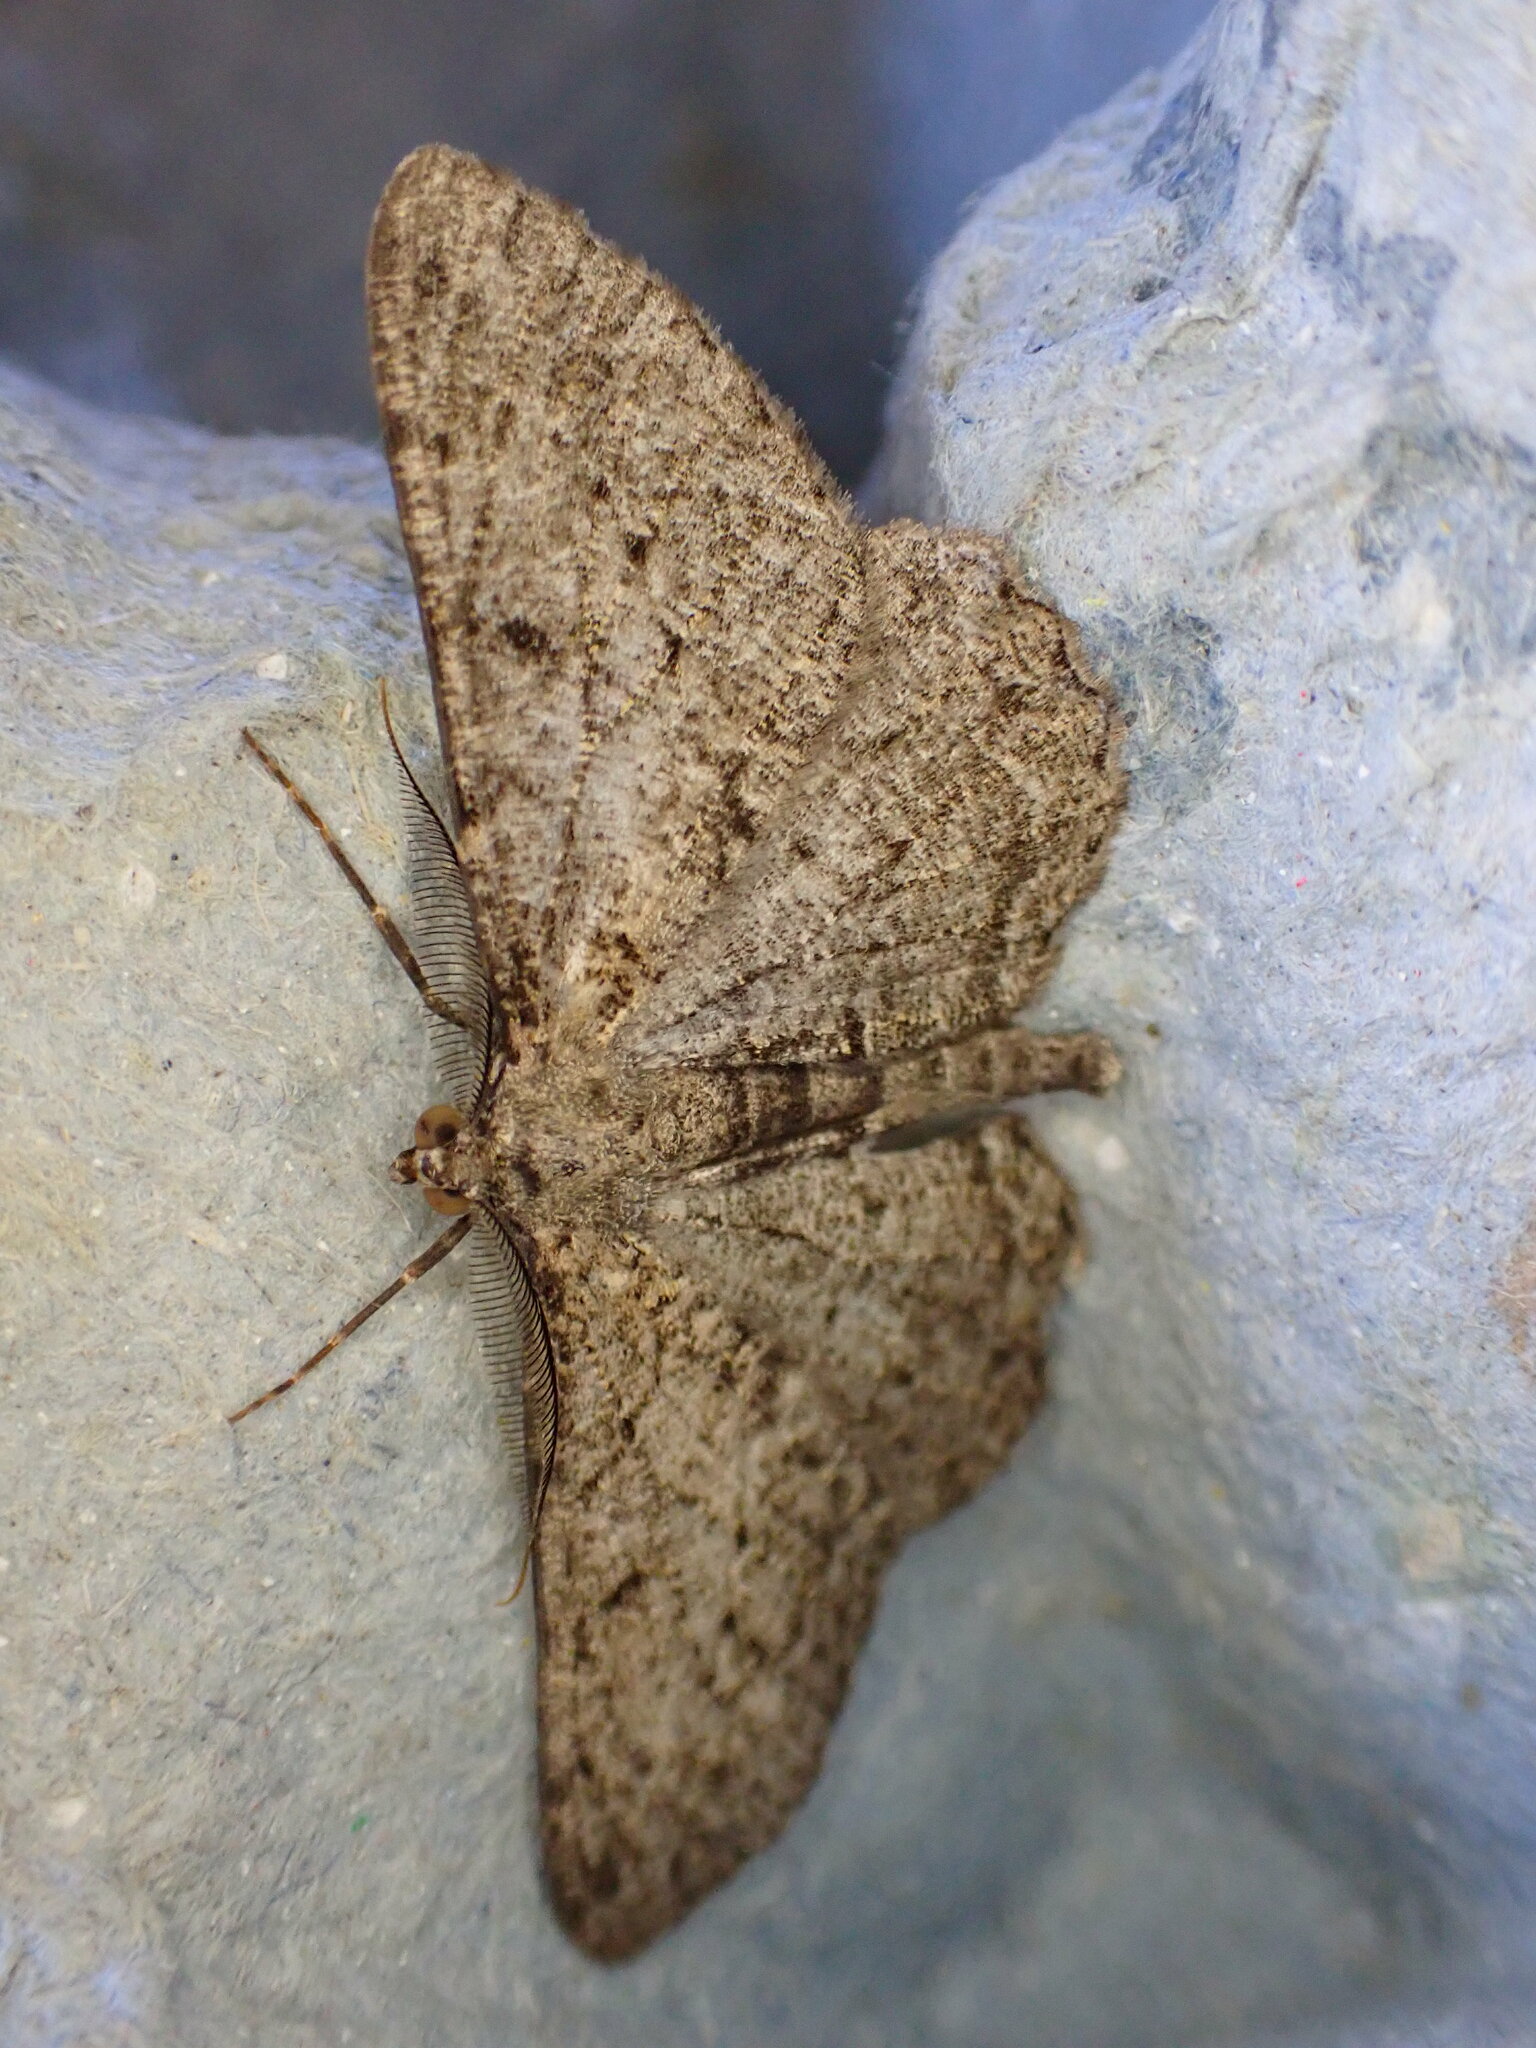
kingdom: Animalia
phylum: Arthropoda
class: Insecta
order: Lepidoptera
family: Geometridae
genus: Peribatodes
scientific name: Peribatodes rhomboidaria
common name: Willow beauty
